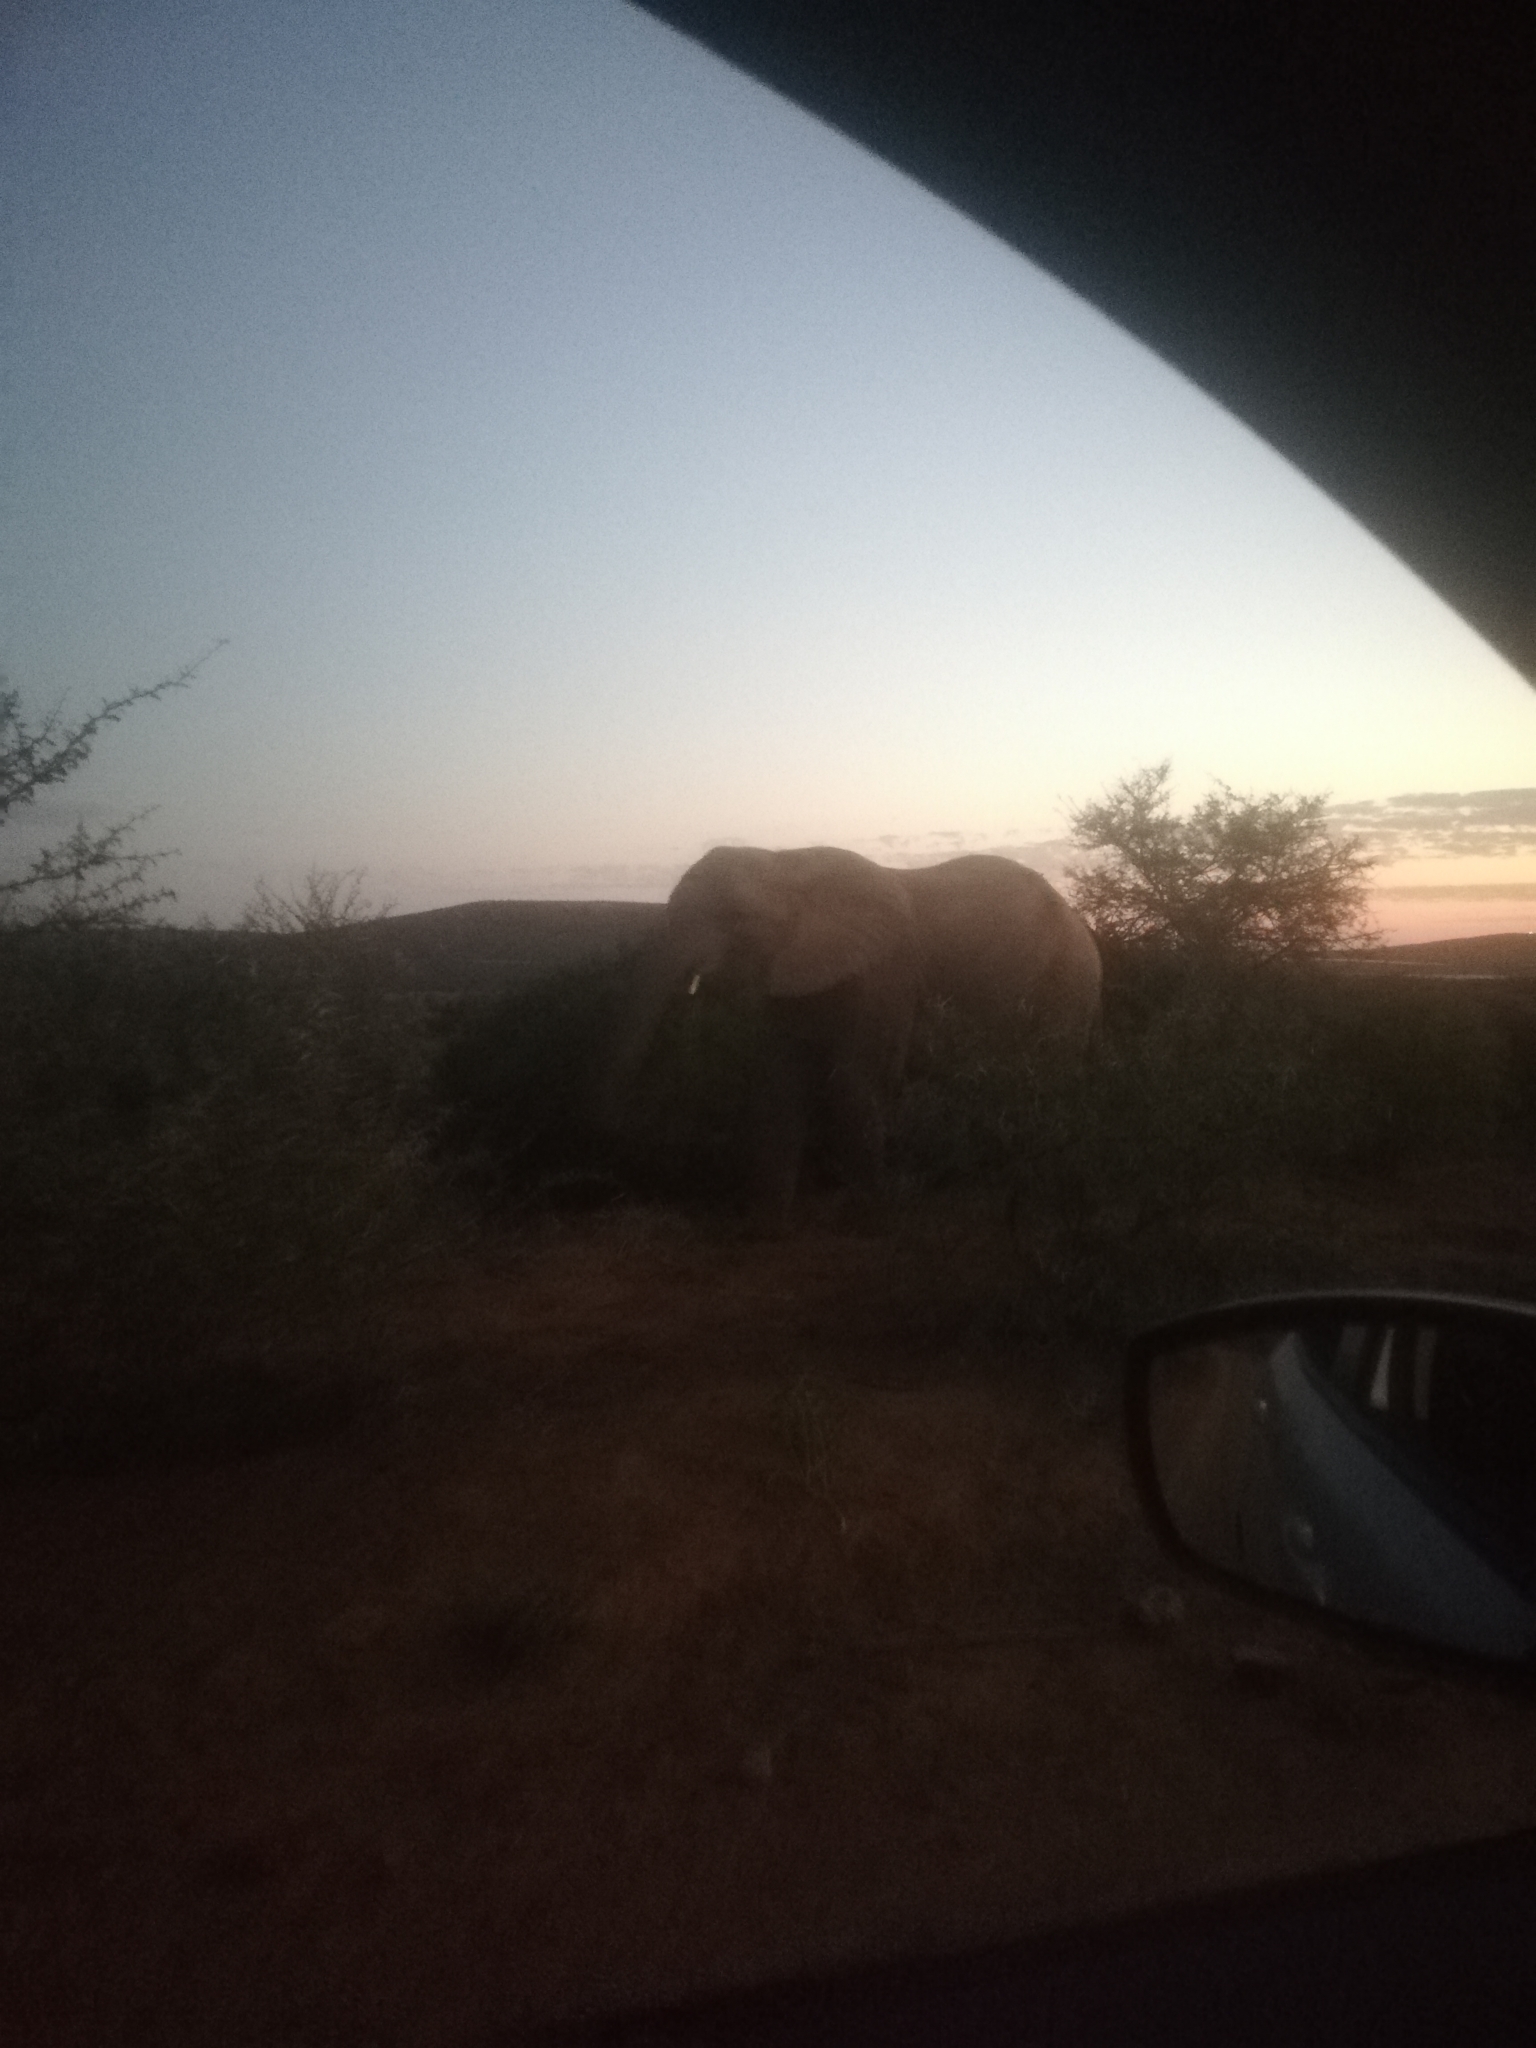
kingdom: Animalia
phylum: Chordata
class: Mammalia
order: Proboscidea
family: Elephantidae
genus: Loxodonta
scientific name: Loxodonta africana
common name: African elephant
